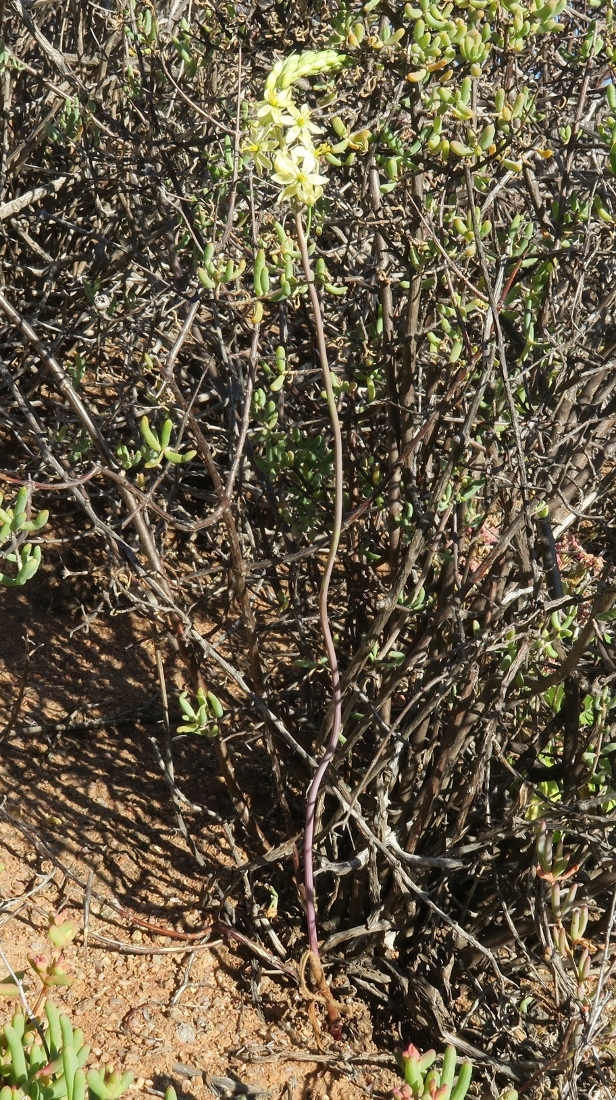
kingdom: Plantae
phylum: Tracheophyta
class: Liliopsida
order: Asparagales
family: Asparagaceae
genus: Ornithogalum
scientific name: Ornithogalum hispidum
